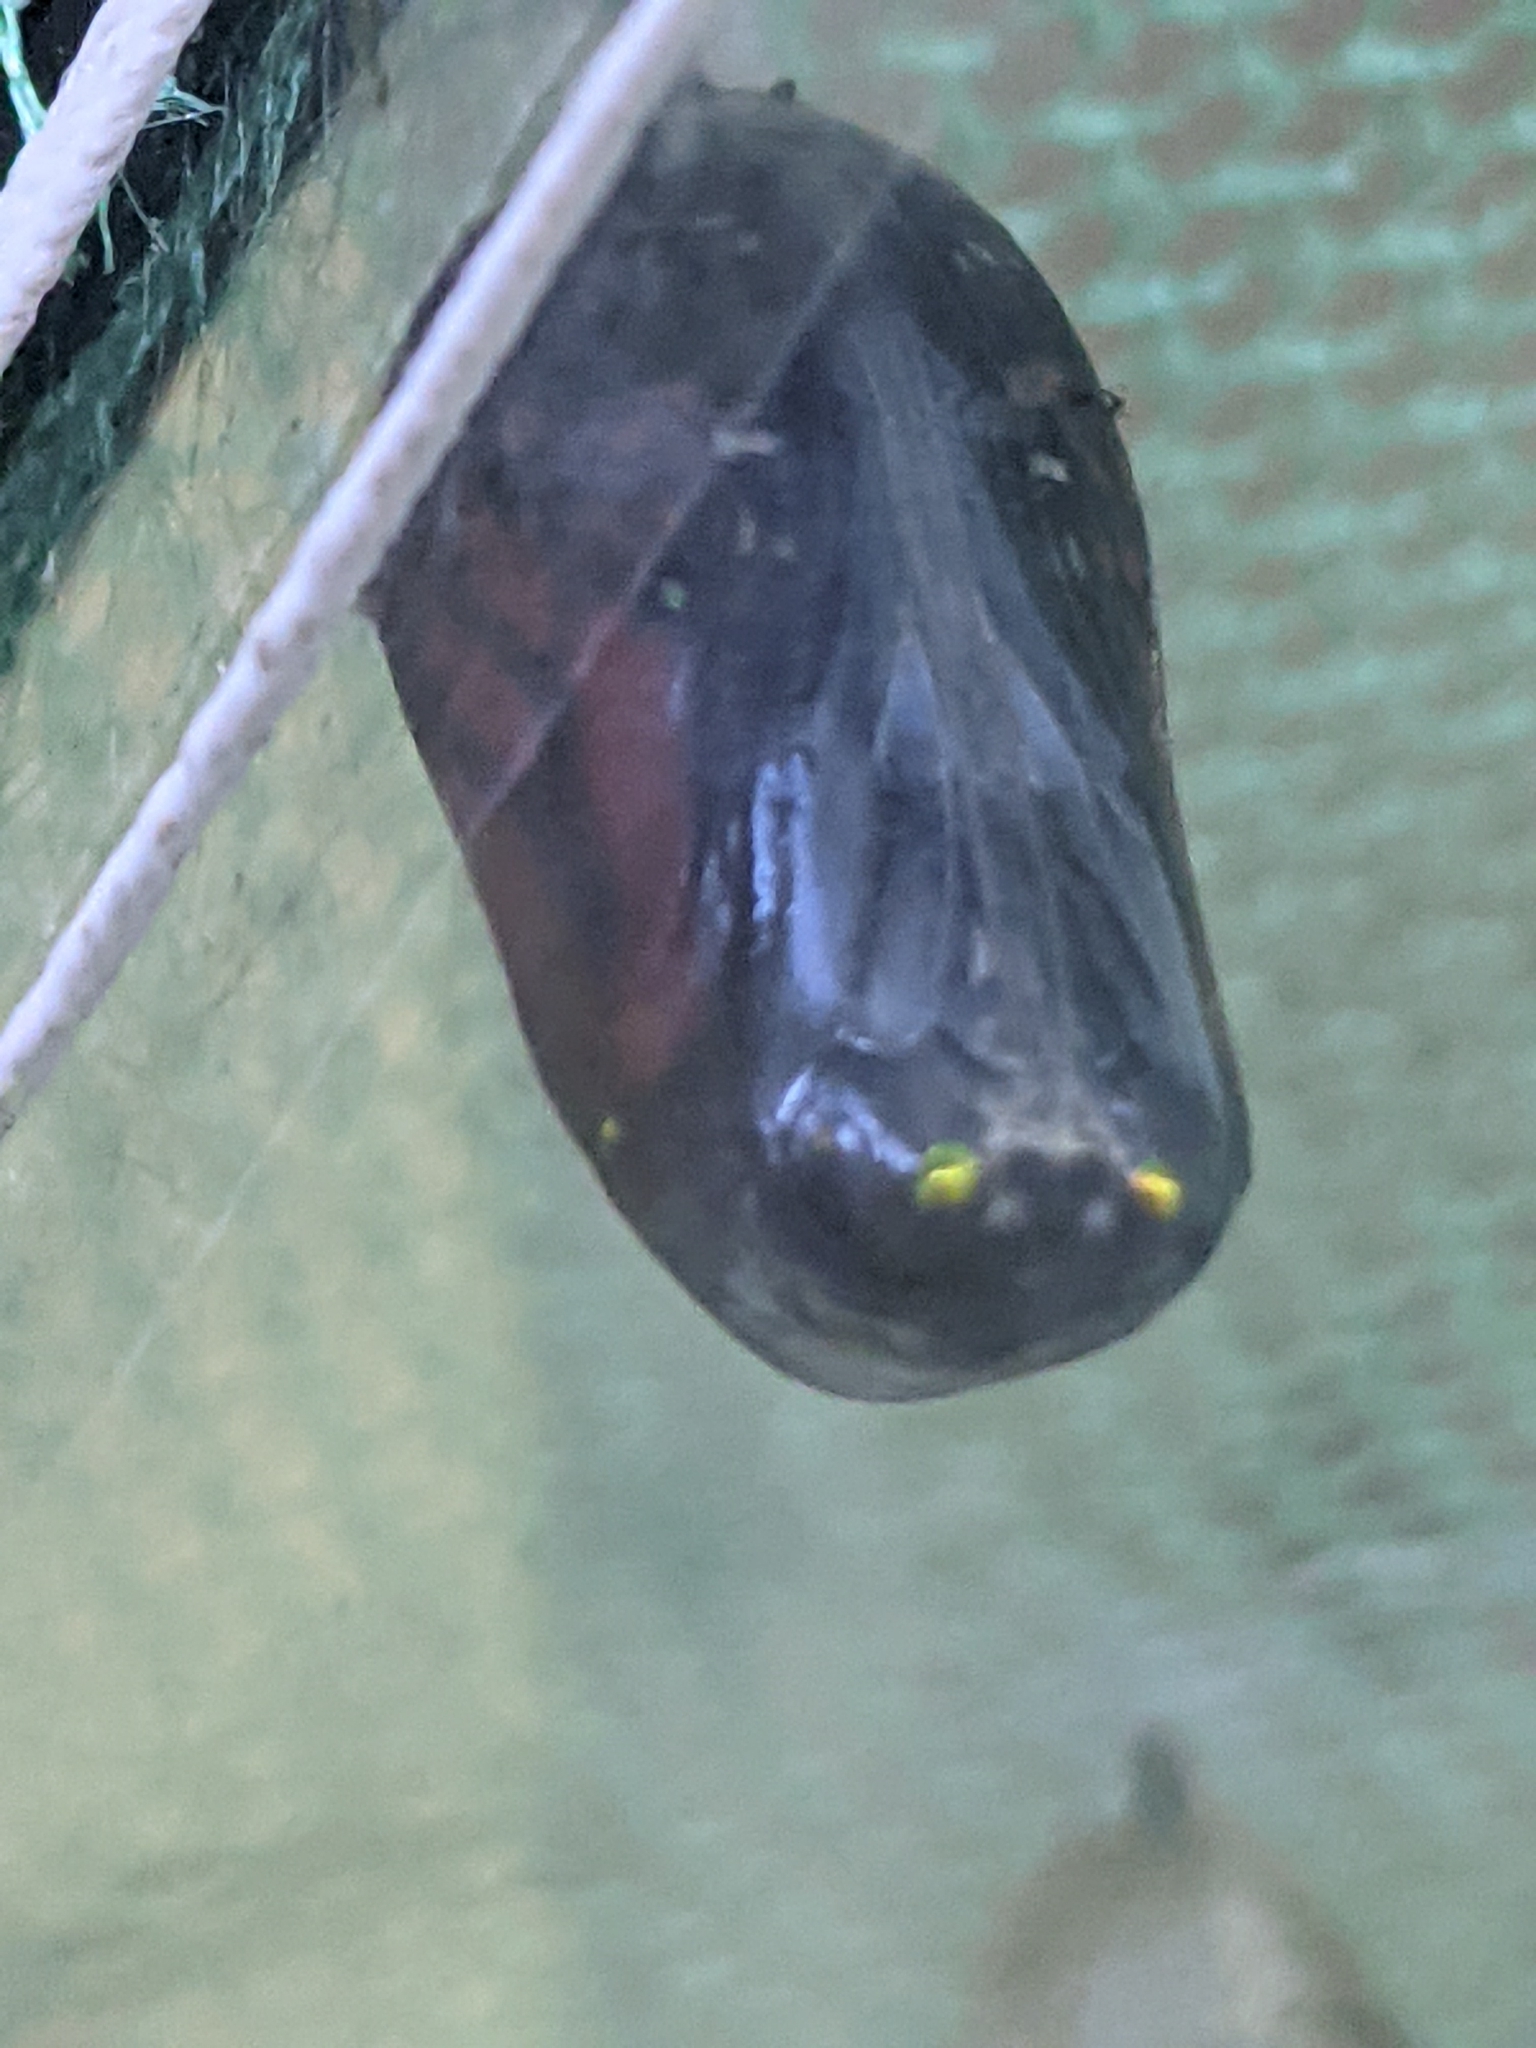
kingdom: Animalia
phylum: Arthropoda
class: Insecta
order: Lepidoptera
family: Nymphalidae
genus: Danaus
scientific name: Danaus plexippus
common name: Monarch
